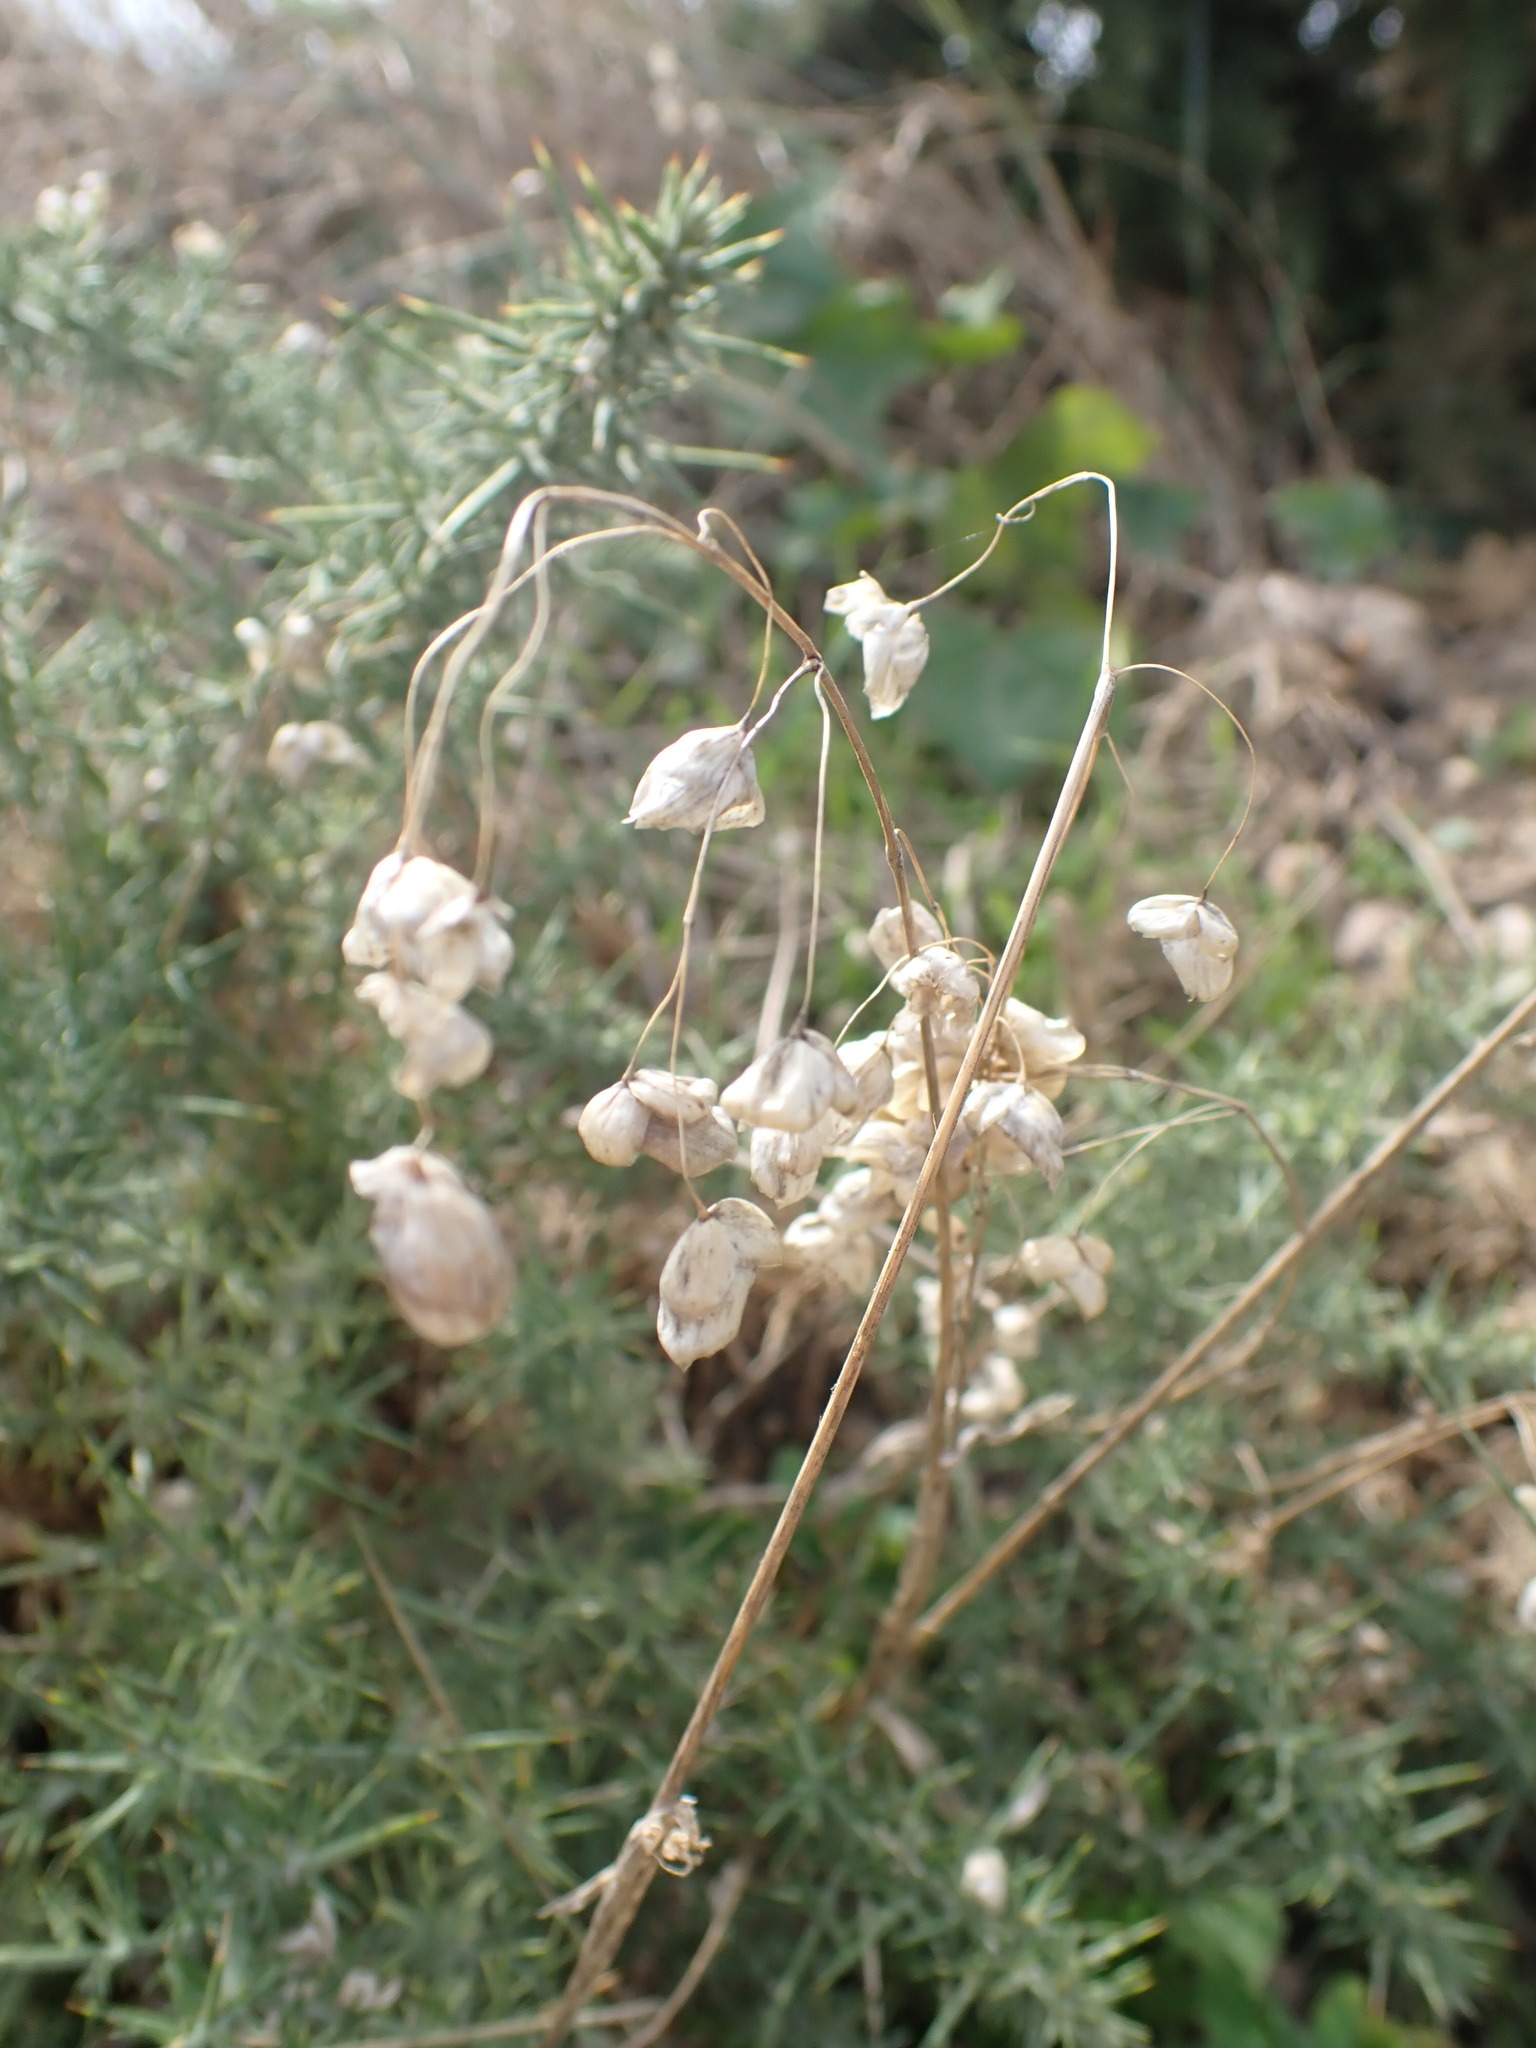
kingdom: Plantae
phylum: Tracheophyta
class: Liliopsida
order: Poales
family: Poaceae
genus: Briza
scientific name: Briza maxima
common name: Big quakinggrass
